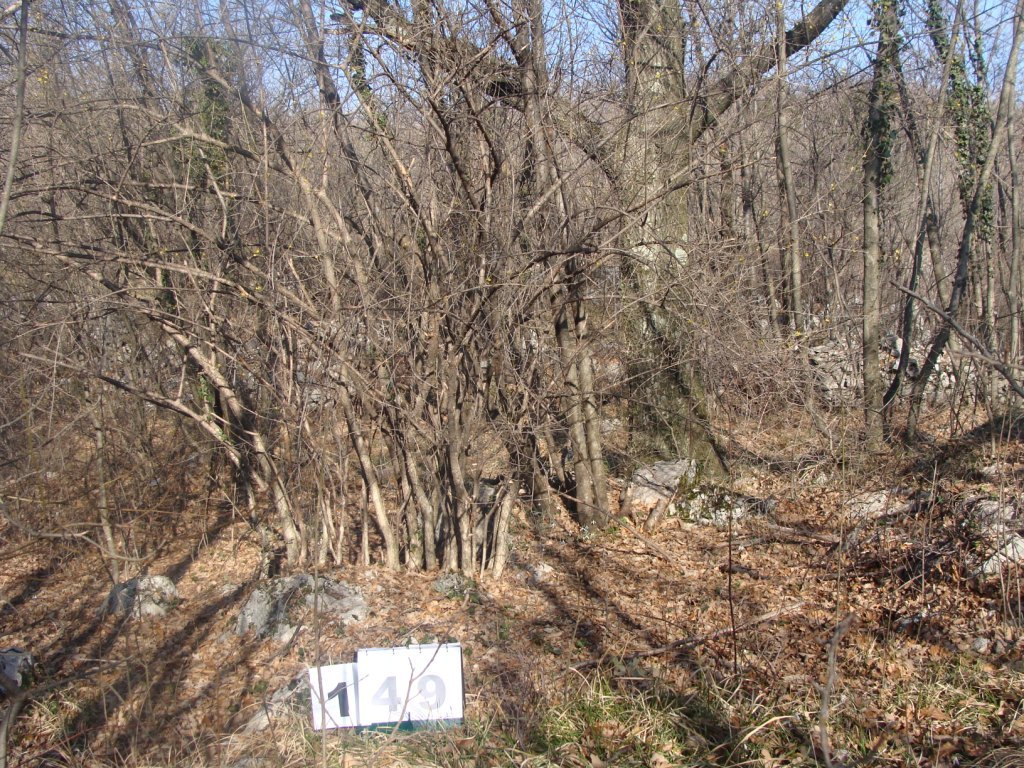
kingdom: Plantae
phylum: Tracheophyta
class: Magnoliopsida
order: Cornales
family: Cornaceae
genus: Cornus
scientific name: Cornus mas
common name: Cornelian-cherry
